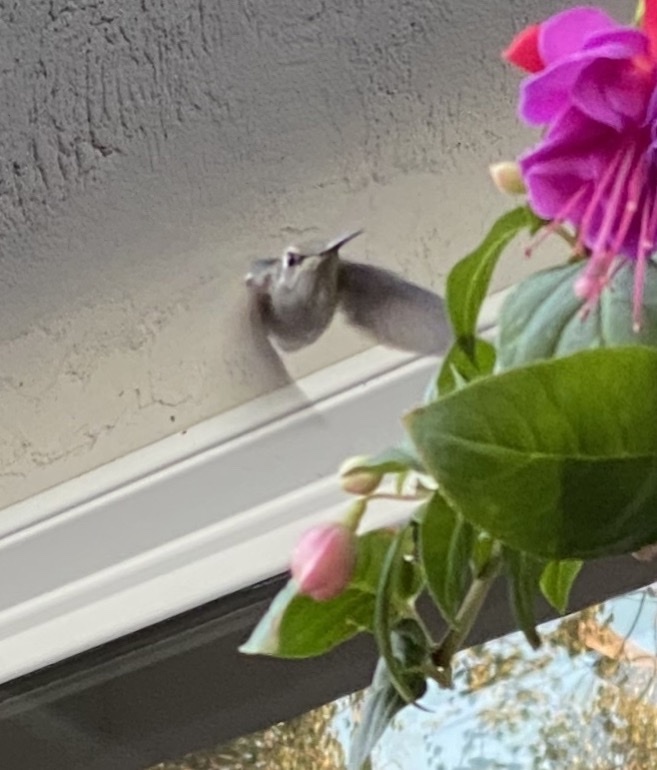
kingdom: Animalia
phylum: Chordata
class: Aves
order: Apodiformes
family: Trochilidae
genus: Calypte
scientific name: Calypte anna
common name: Anna's hummingbird
